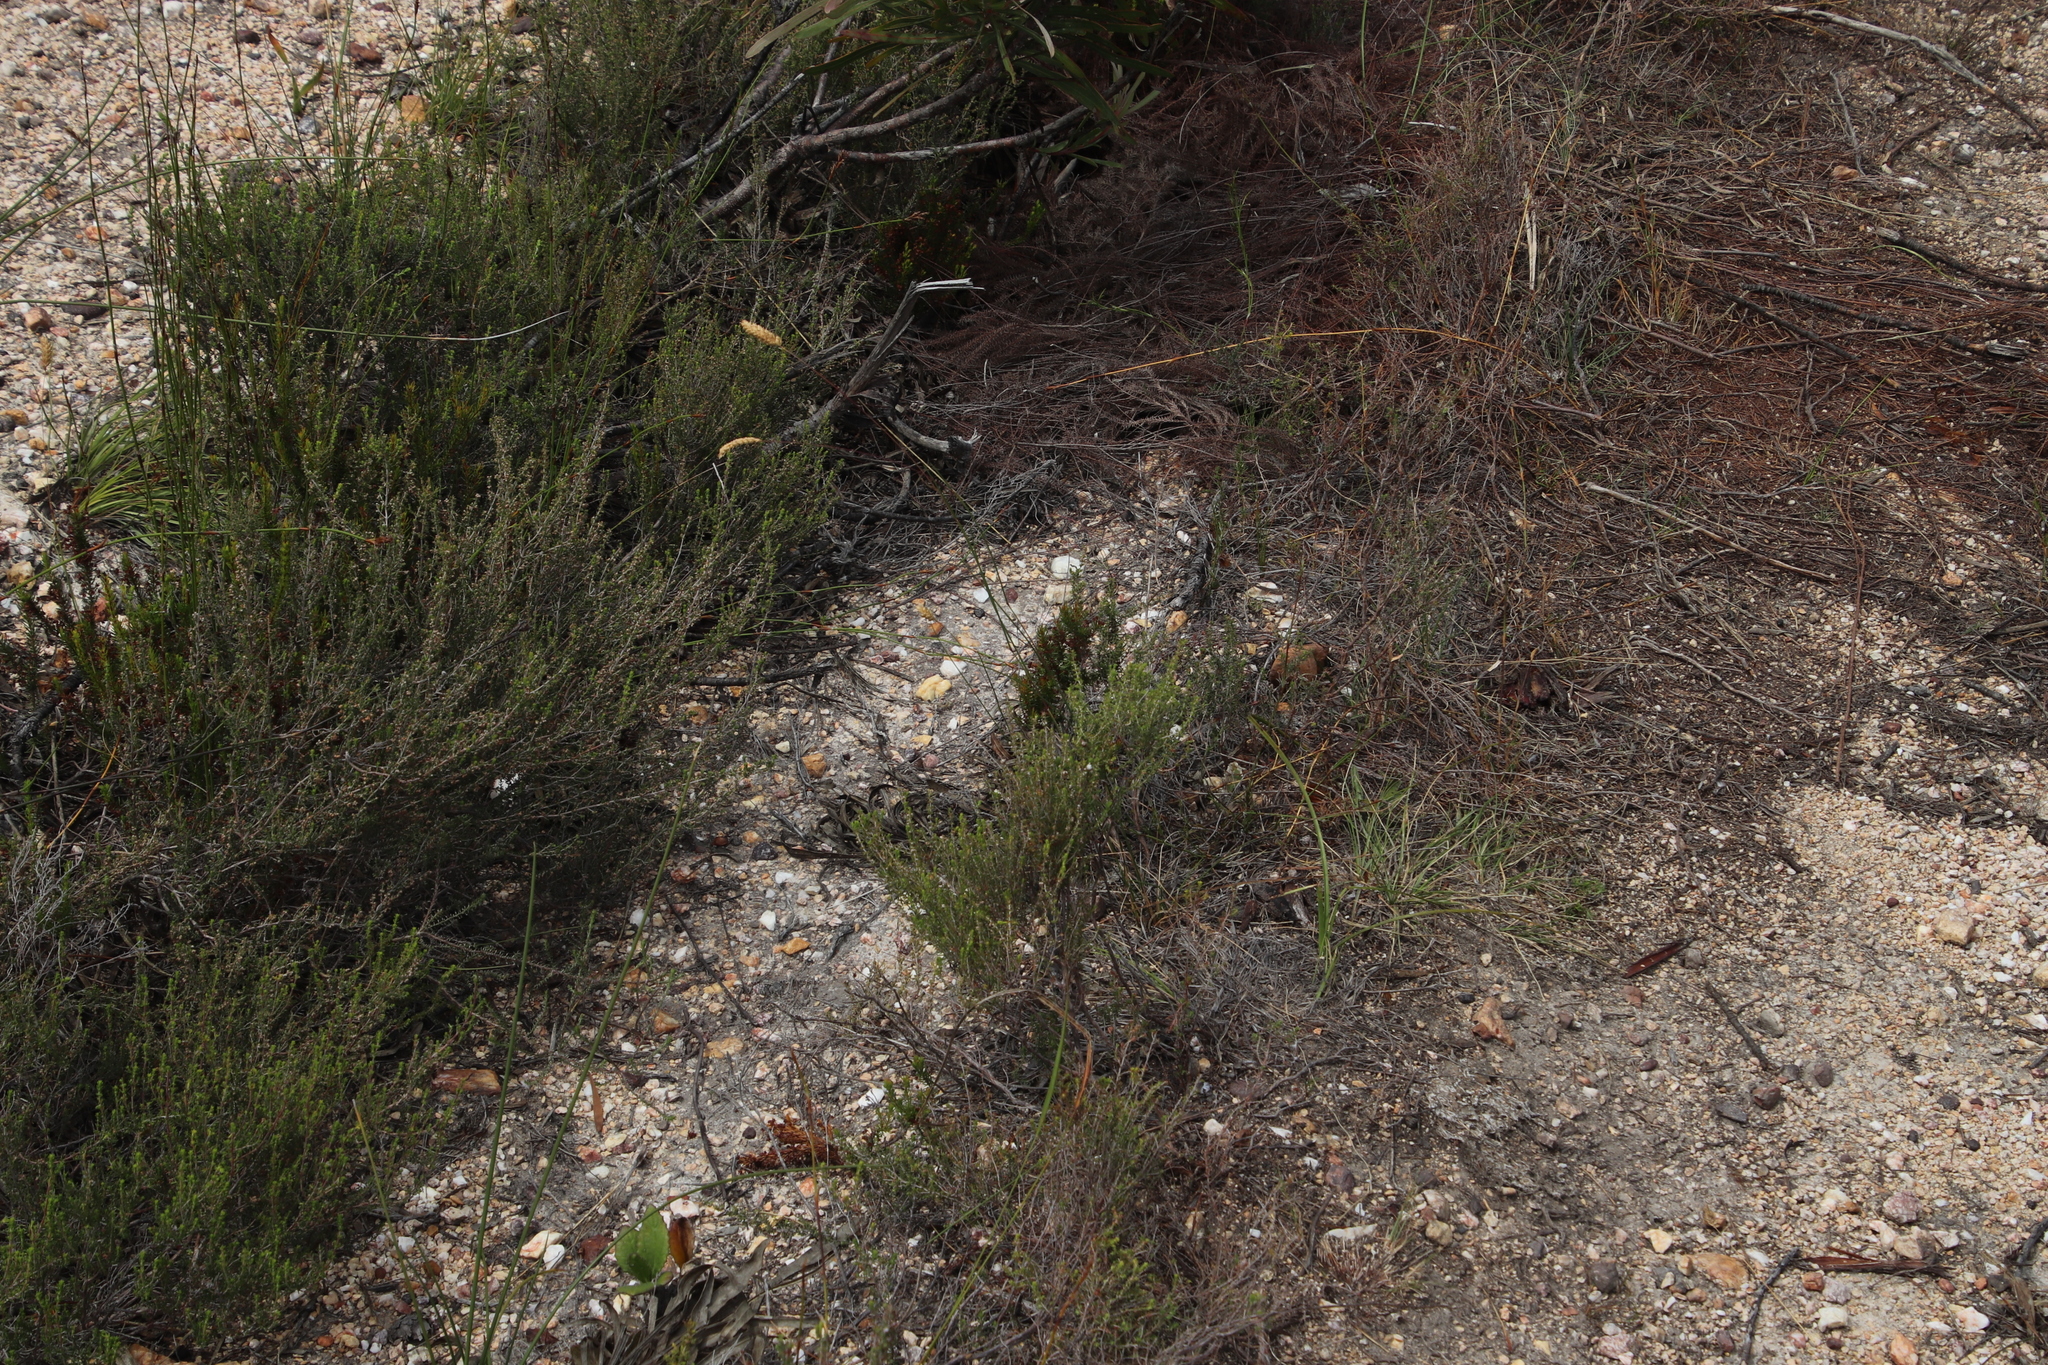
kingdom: Plantae
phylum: Tracheophyta
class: Liliopsida
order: Poales
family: Poaceae
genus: Tribolium
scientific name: Tribolium uniolae
